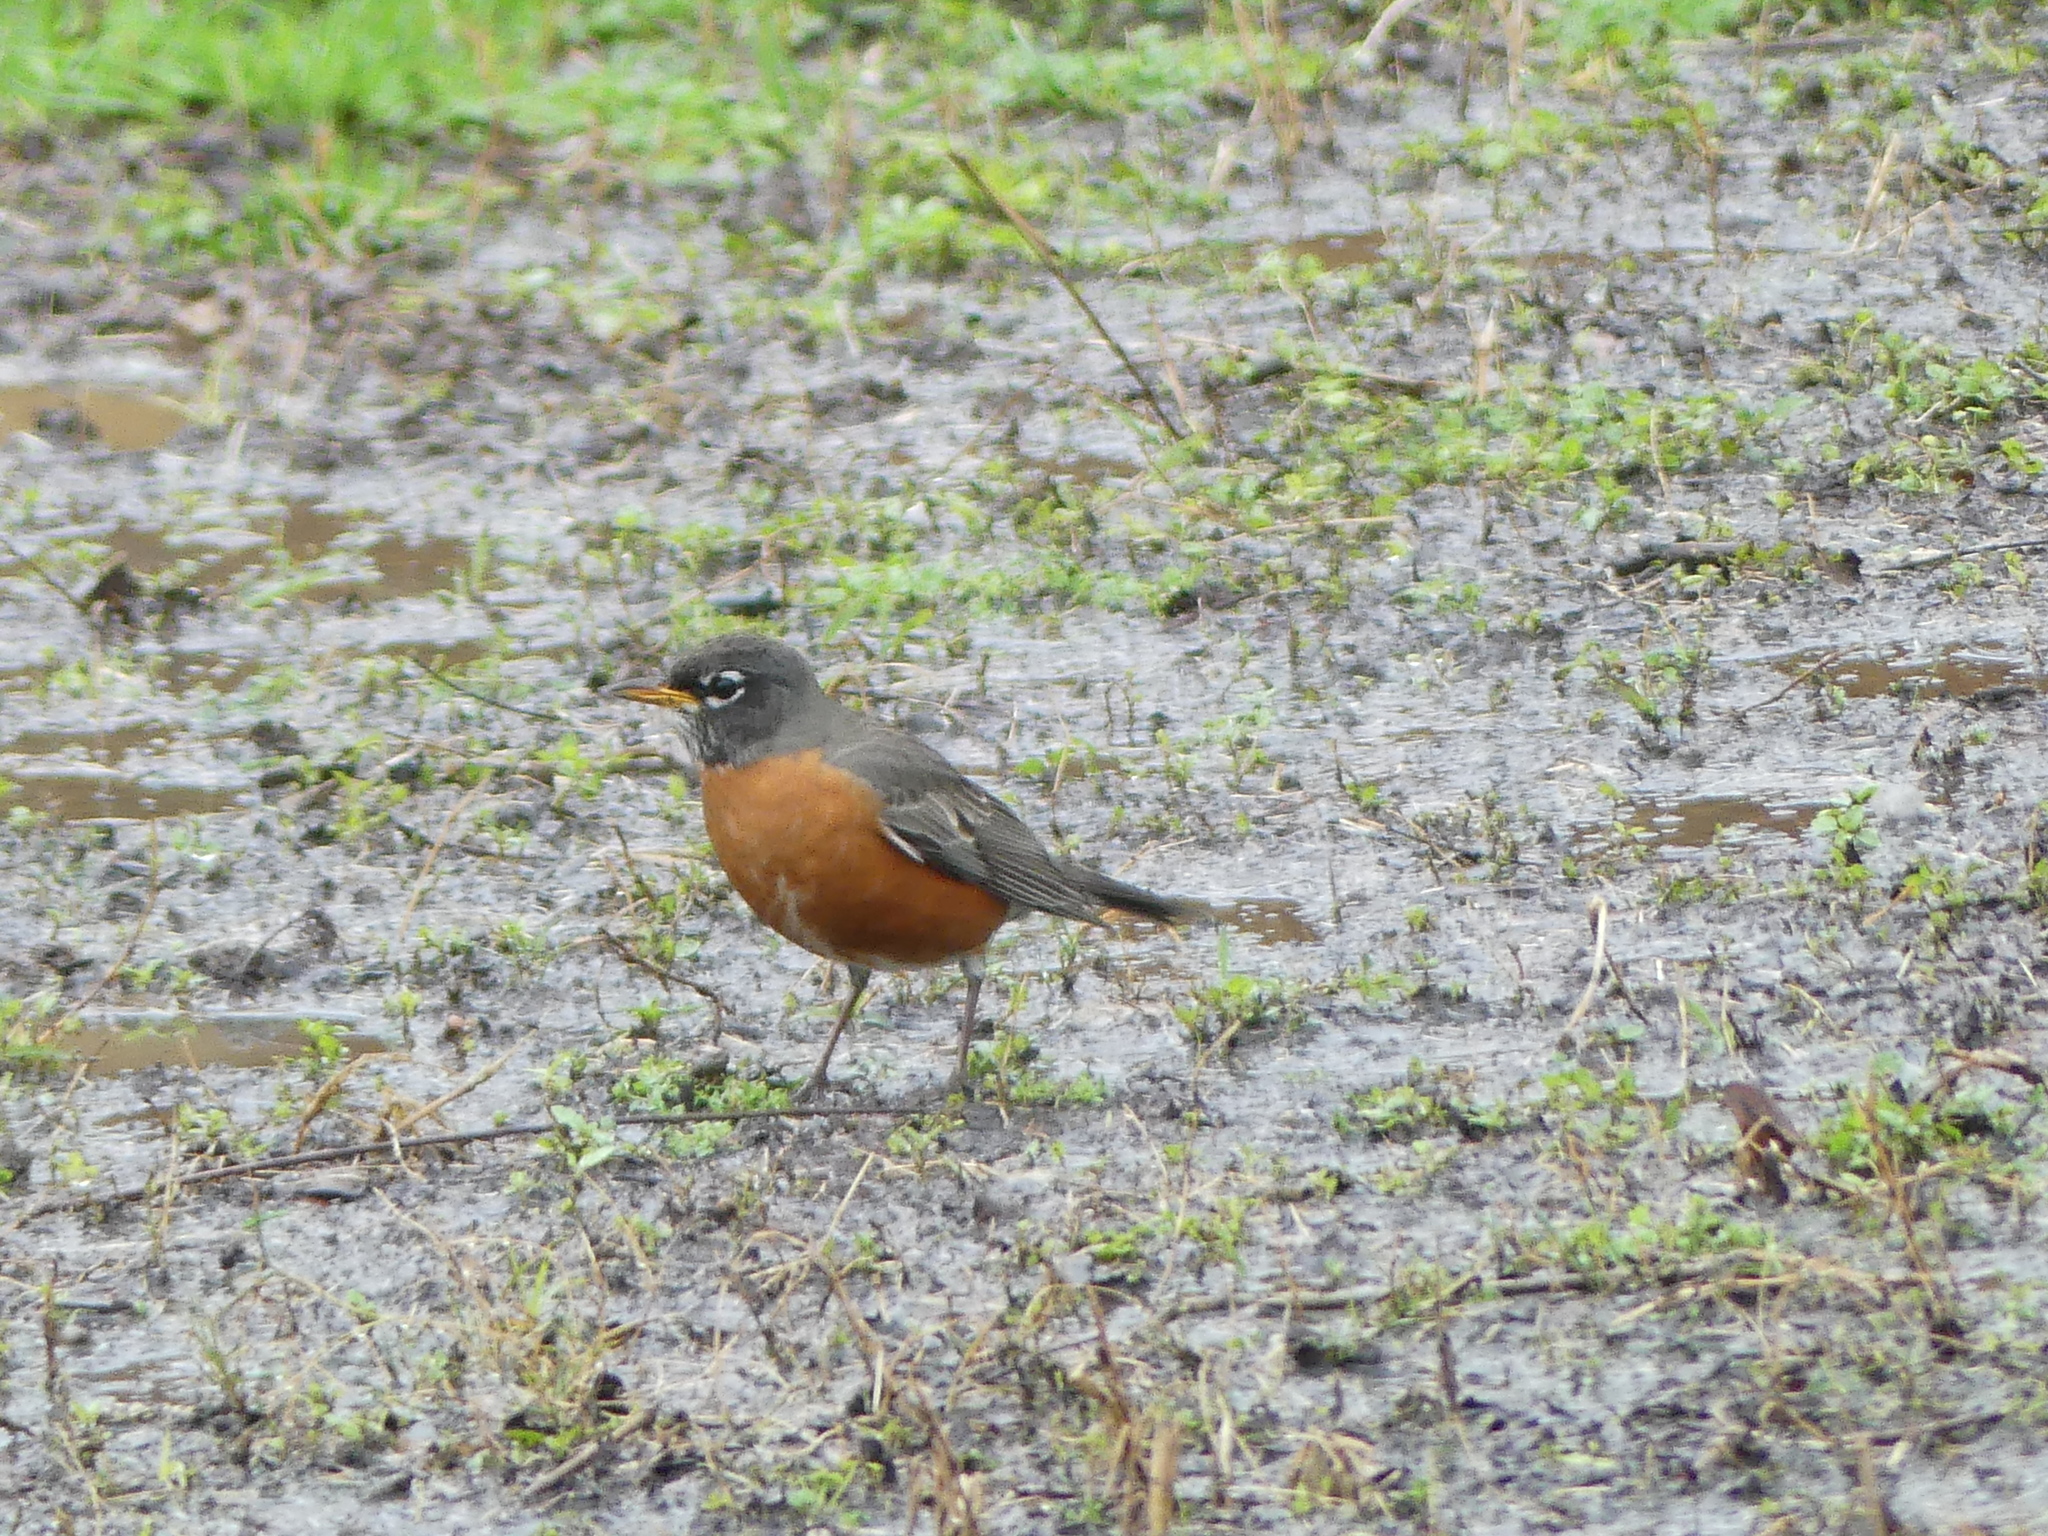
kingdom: Animalia
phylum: Chordata
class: Aves
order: Passeriformes
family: Turdidae
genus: Turdus
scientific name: Turdus migratorius
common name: American robin
